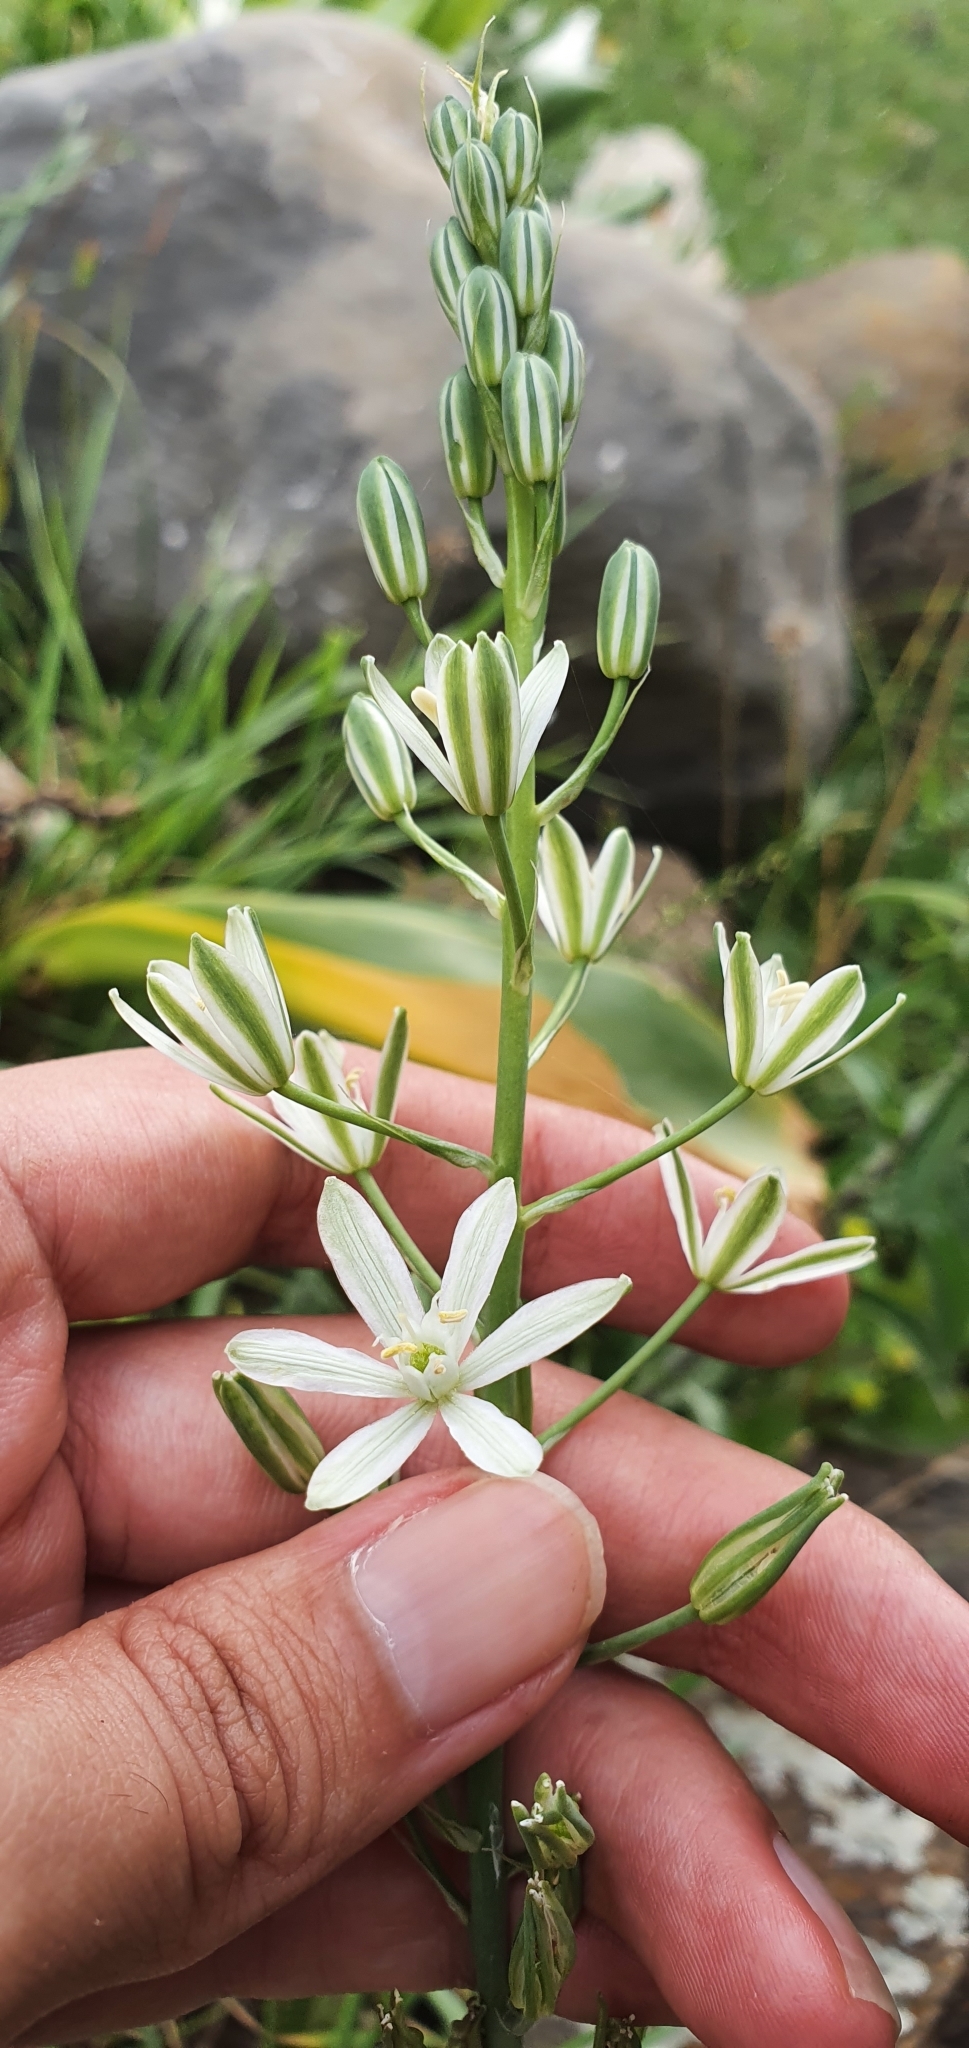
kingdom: Plantae
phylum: Tracheophyta
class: Liliopsida
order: Asparagales
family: Asparagaceae
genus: Ornithogalum
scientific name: Ornithogalum narbonense
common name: Bath-asparagus
